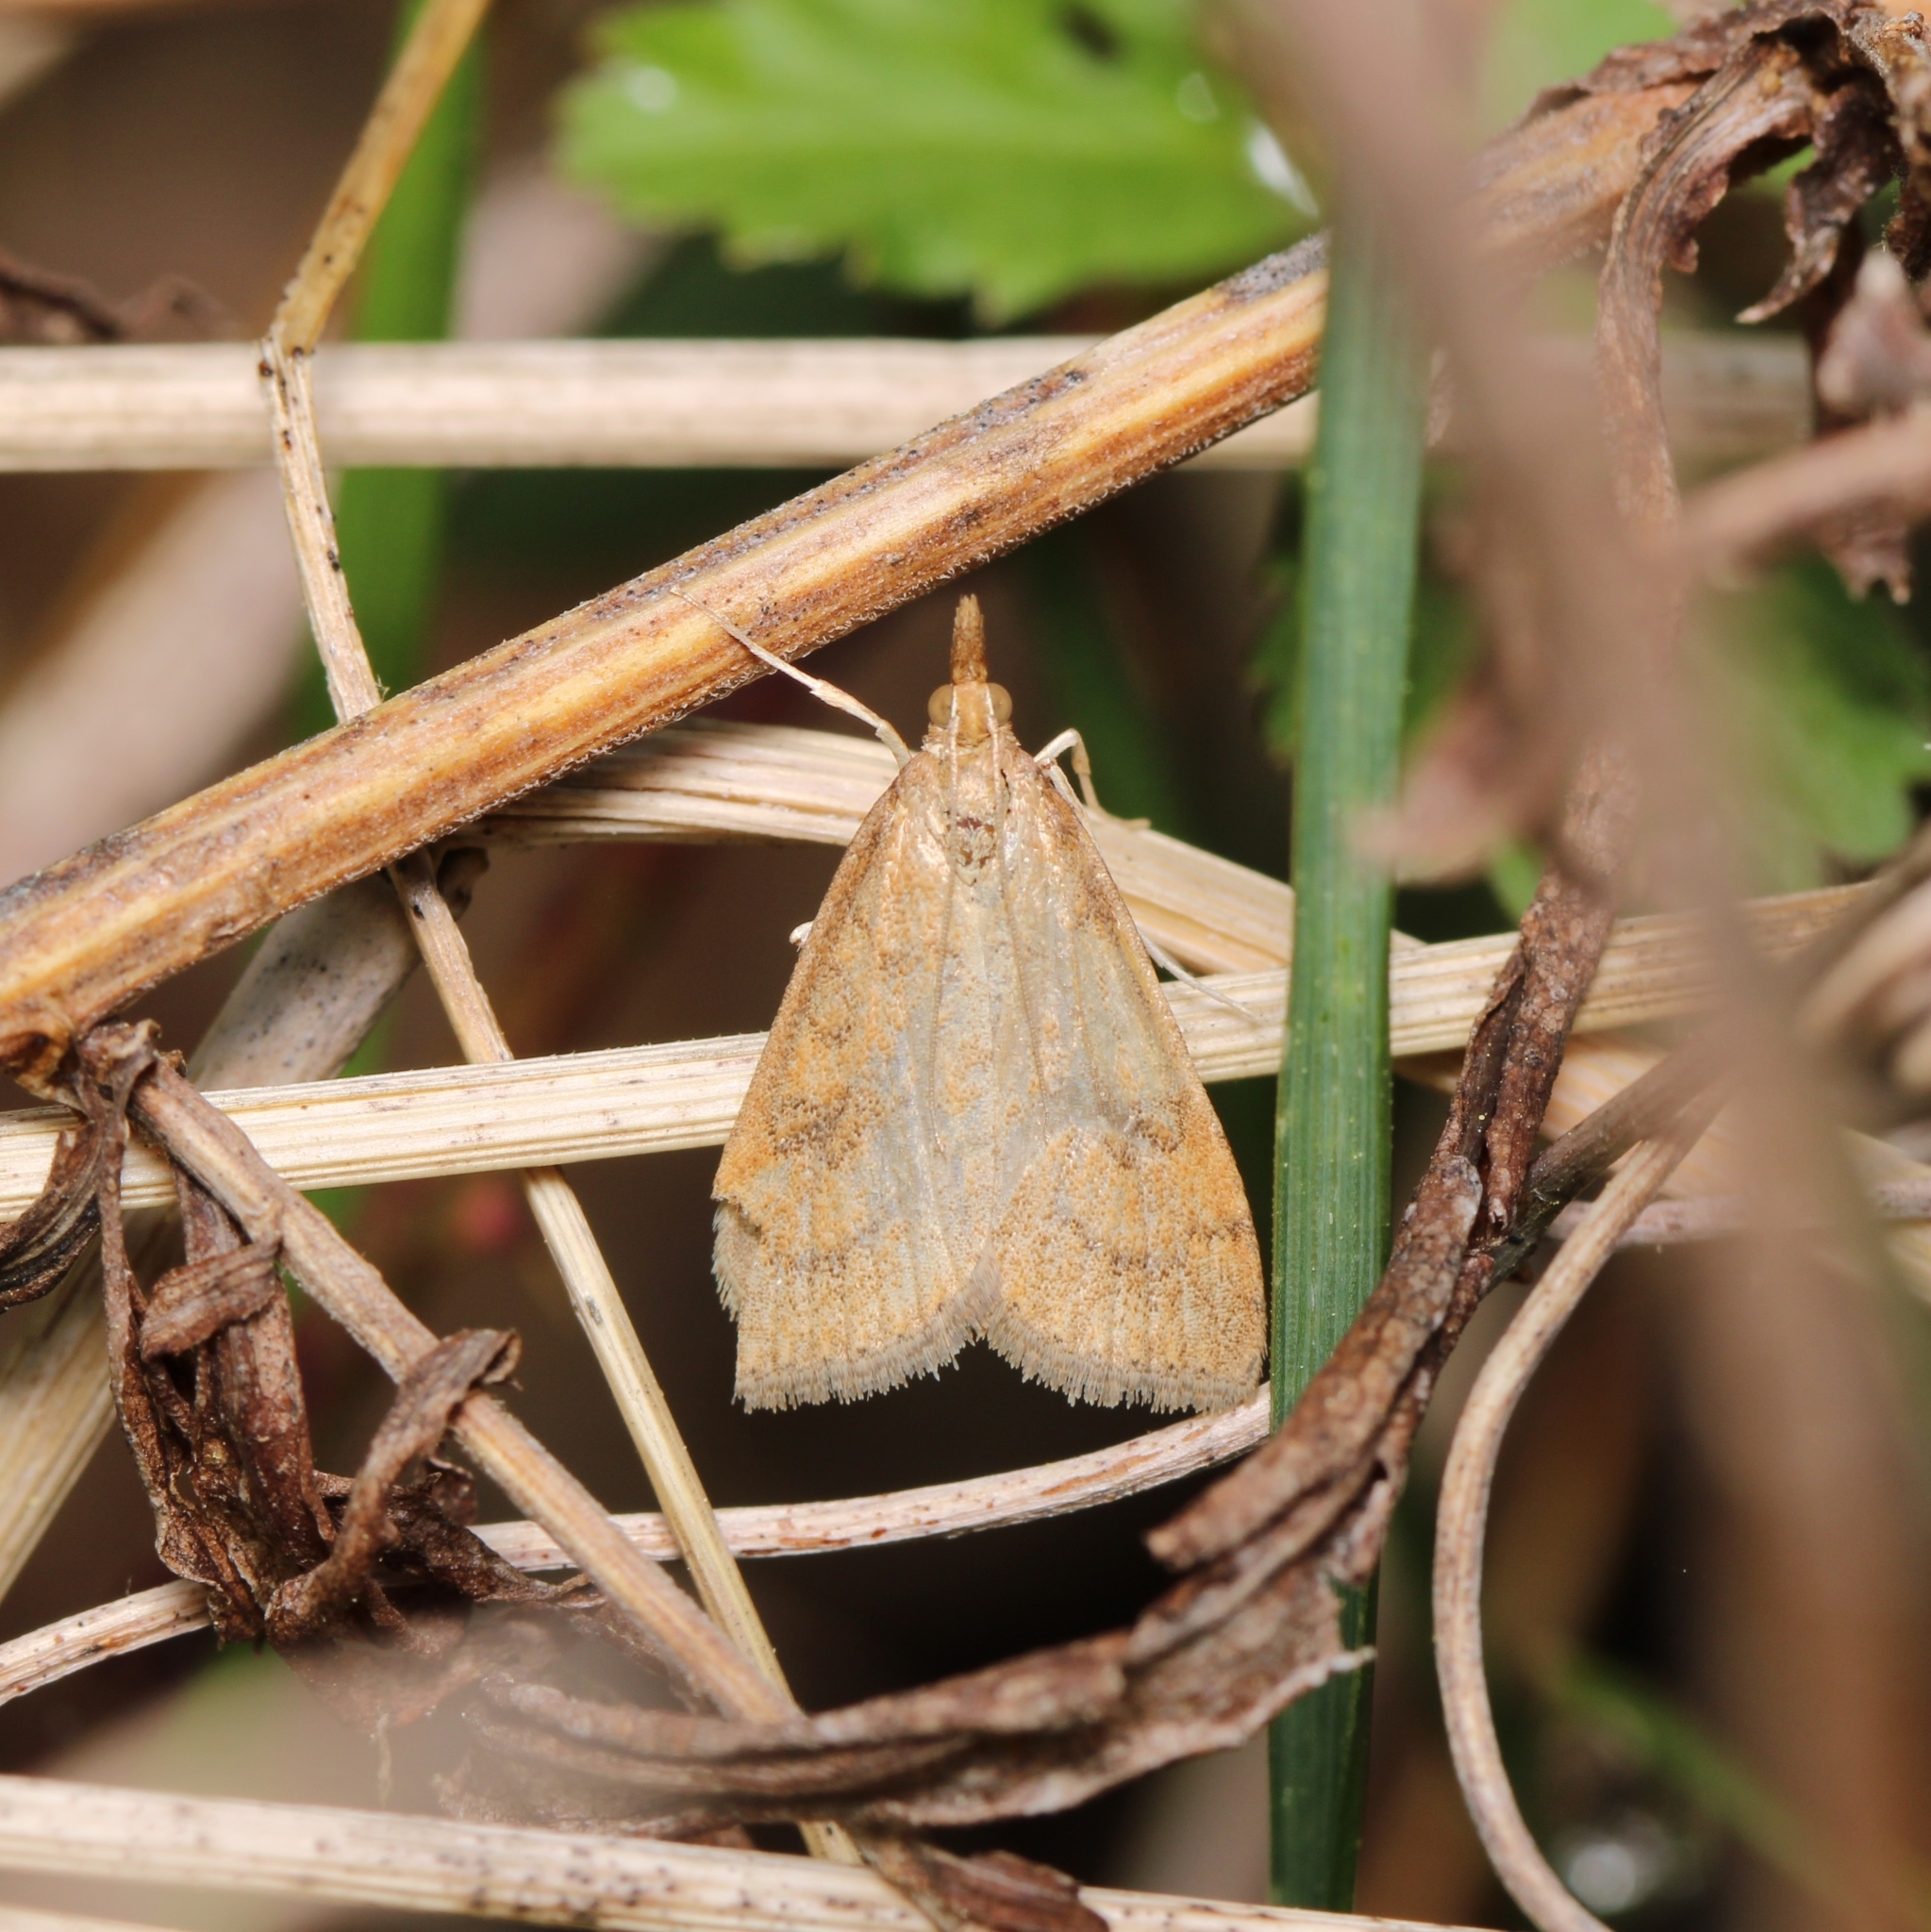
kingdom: Animalia
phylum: Arthropoda
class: Insecta
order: Lepidoptera
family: Crambidae
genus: Udea
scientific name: Udea rubigalis
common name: Celery leaftier moth
